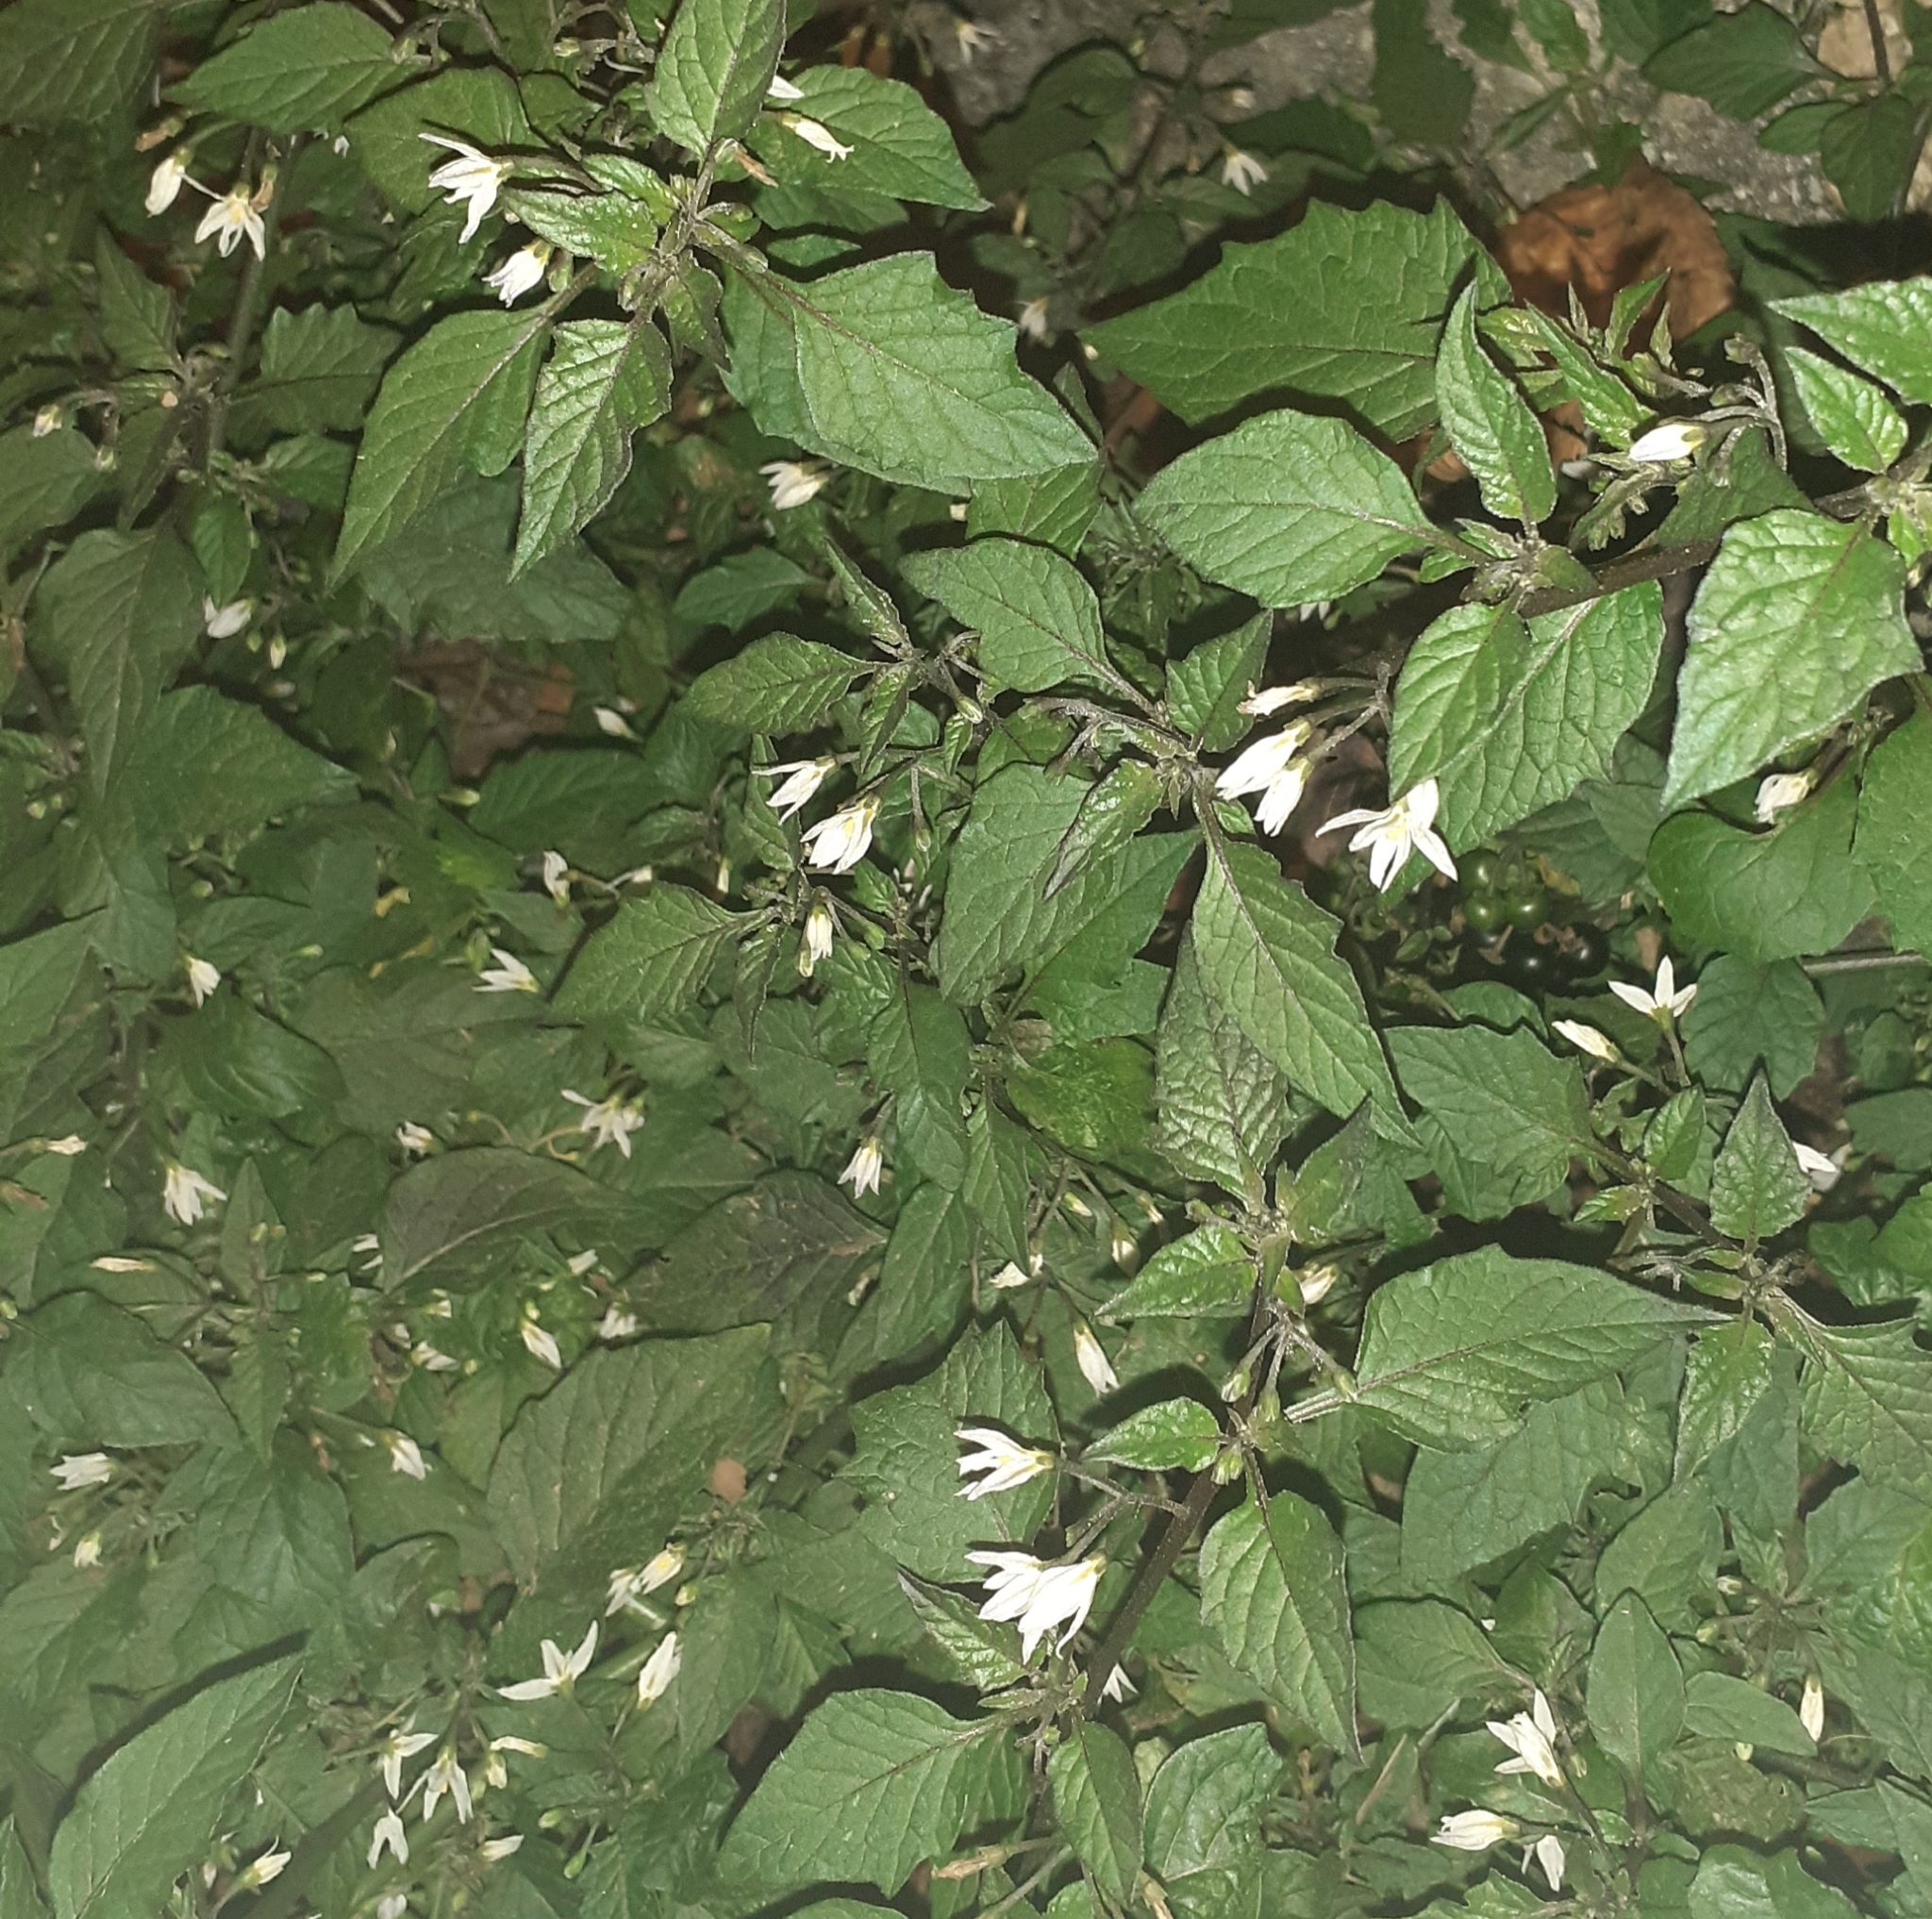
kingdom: Plantae
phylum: Tracheophyta
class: Magnoliopsida
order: Solanales
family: Solanaceae
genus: Solanum
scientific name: Solanum nigrum
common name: Black nightshade
